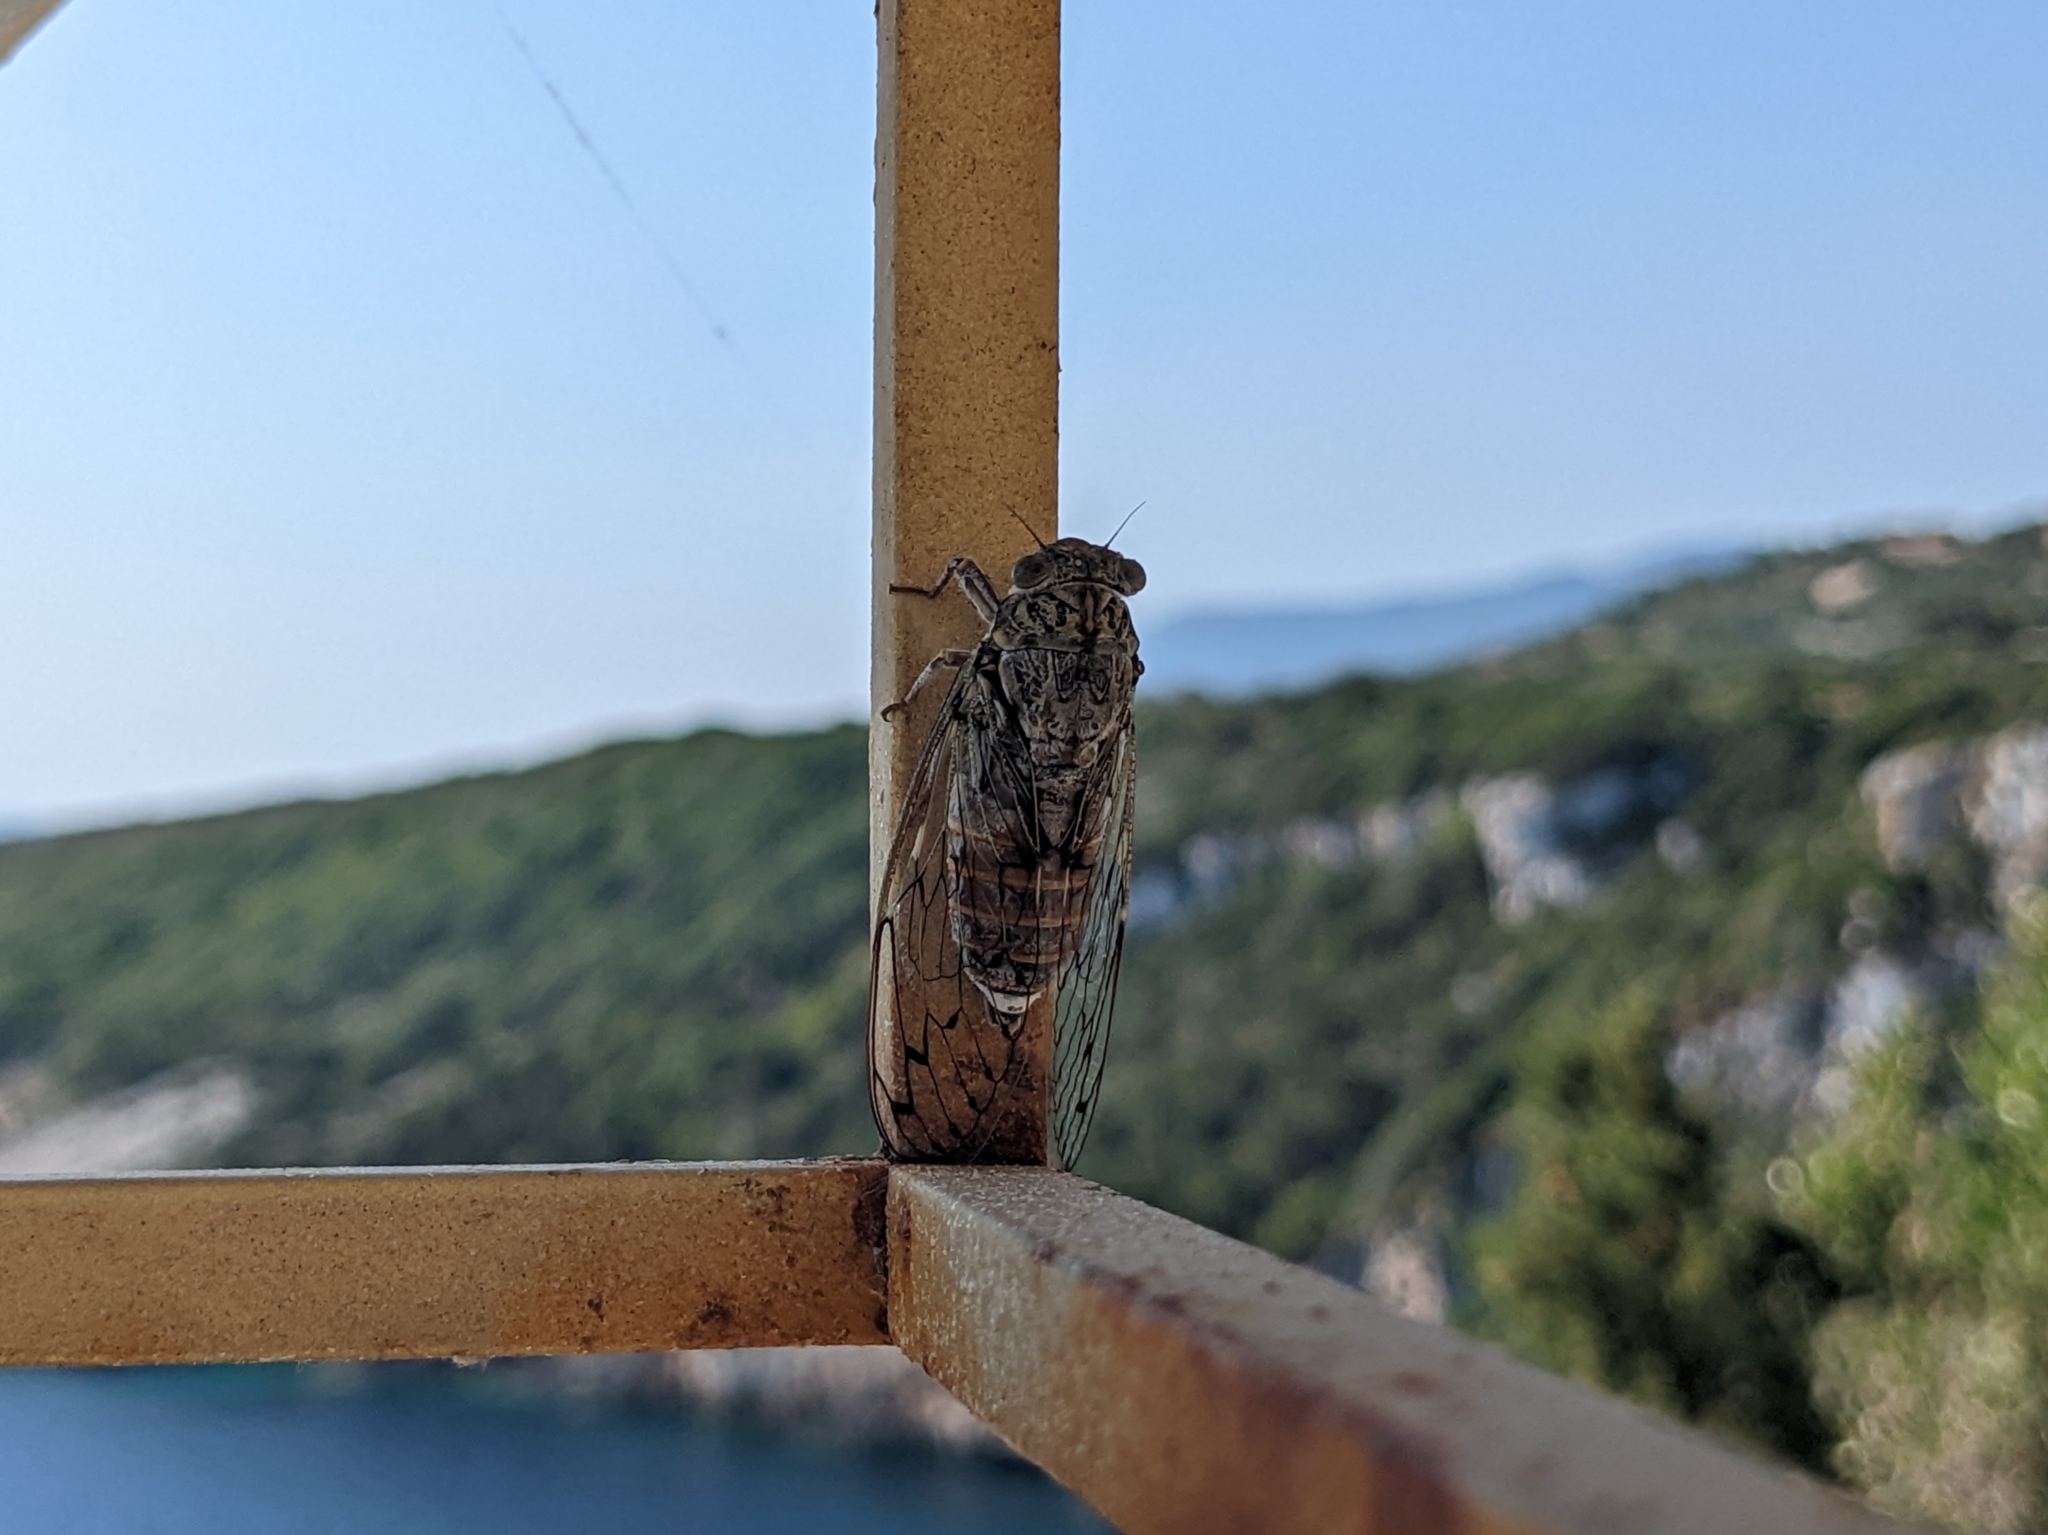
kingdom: Animalia
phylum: Arthropoda
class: Insecta
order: Hemiptera
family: Cicadidae
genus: Cicada
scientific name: Cicada orni
